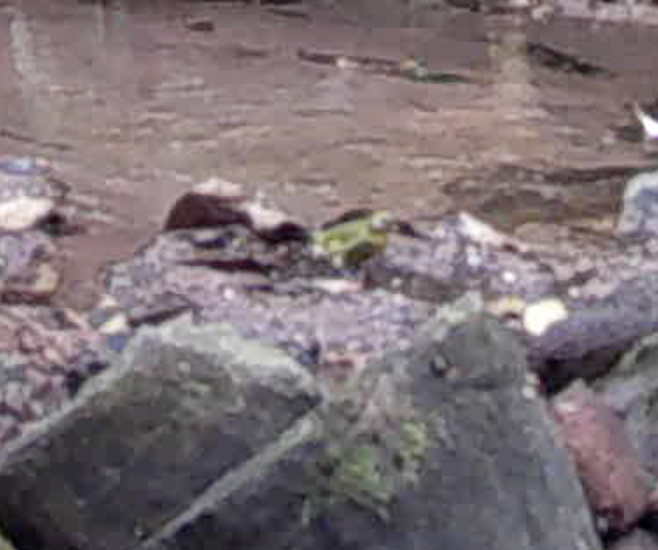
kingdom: Animalia
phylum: Chordata
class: Aves
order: Passeriformes
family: Fringillidae
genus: Crithagra
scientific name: Crithagra scotops
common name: Forest canary
